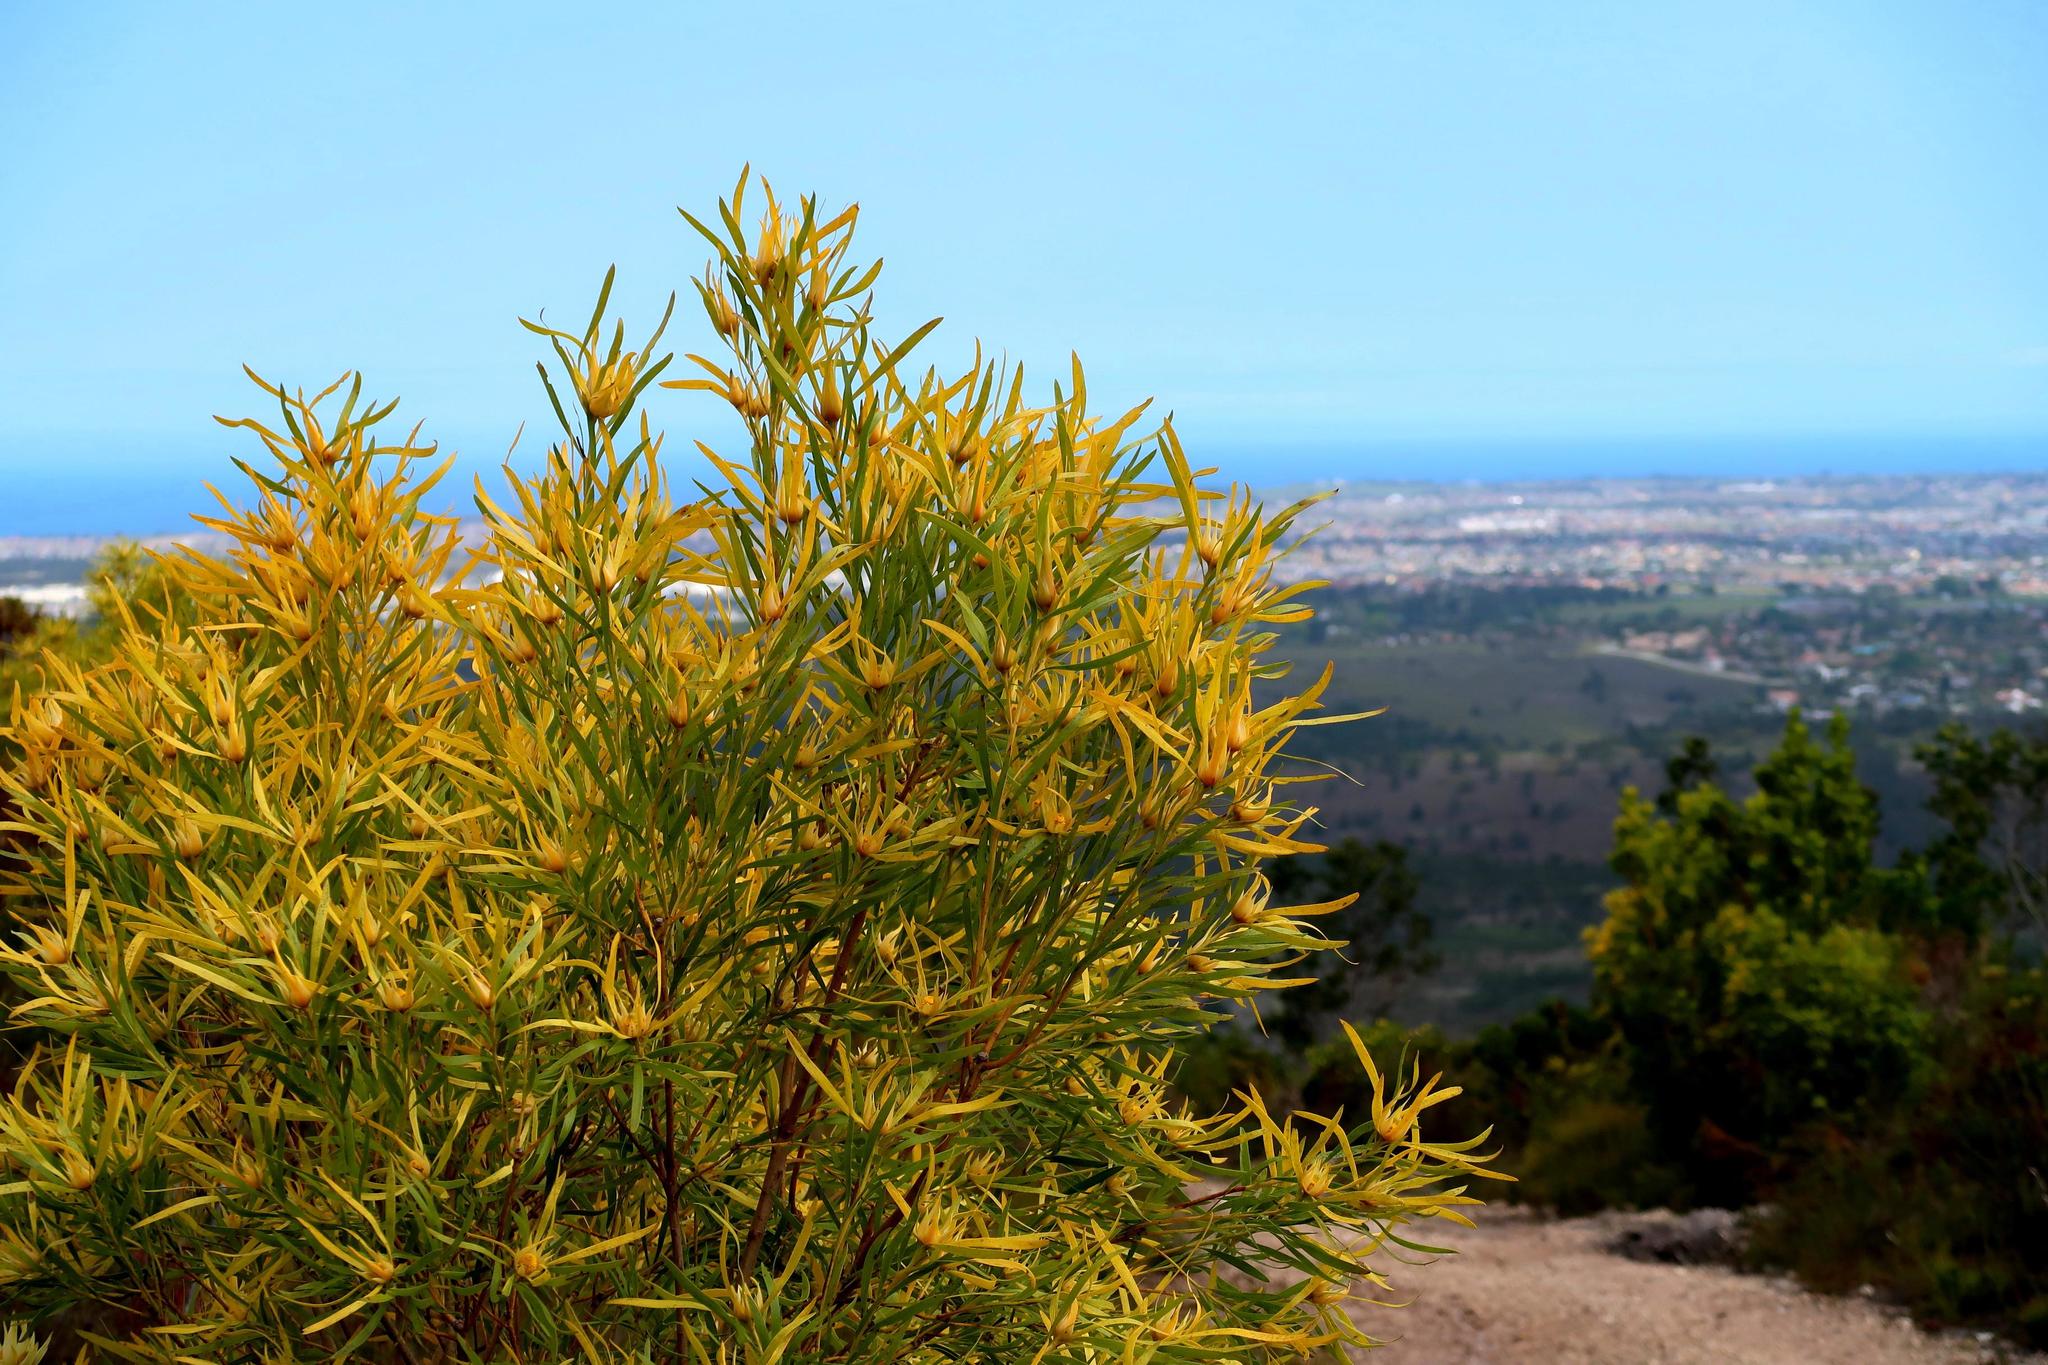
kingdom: Plantae
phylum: Tracheophyta
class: Magnoliopsida
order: Proteales
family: Proteaceae
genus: Leucadendron
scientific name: Leucadendron eucalyptifolium
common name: Gum-leaved conebush
